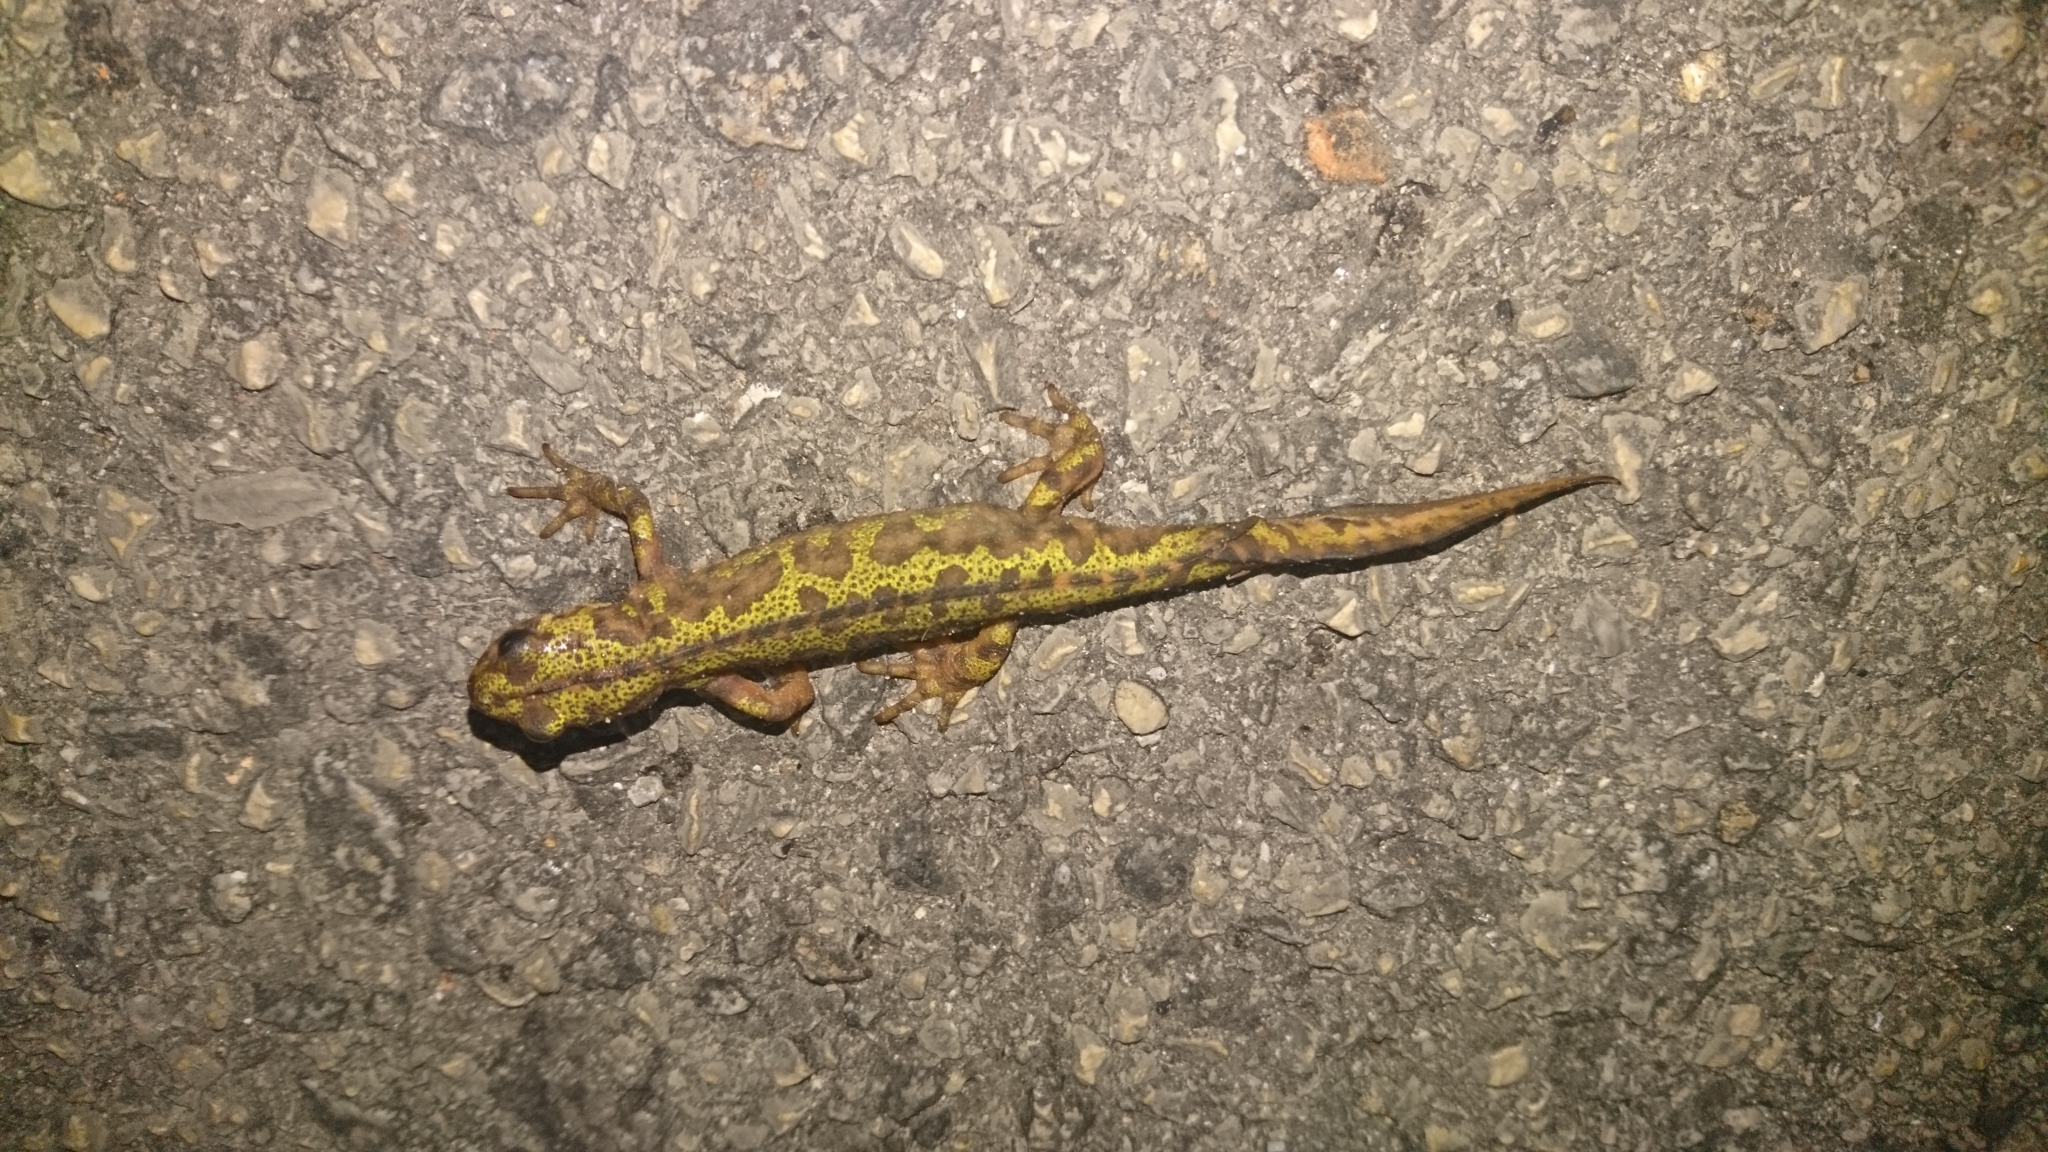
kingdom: Animalia
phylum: Chordata
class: Amphibia
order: Caudata
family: Salamandridae
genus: Triturus
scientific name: Triturus marmoratus
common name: Marbled newt
